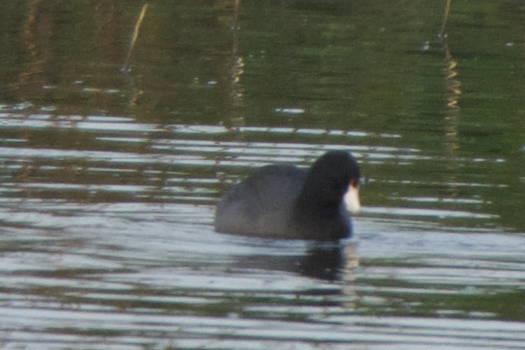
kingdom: Animalia
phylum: Chordata
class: Aves
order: Gruiformes
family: Rallidae
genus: Fulica
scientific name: Fulica americana
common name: American coot
